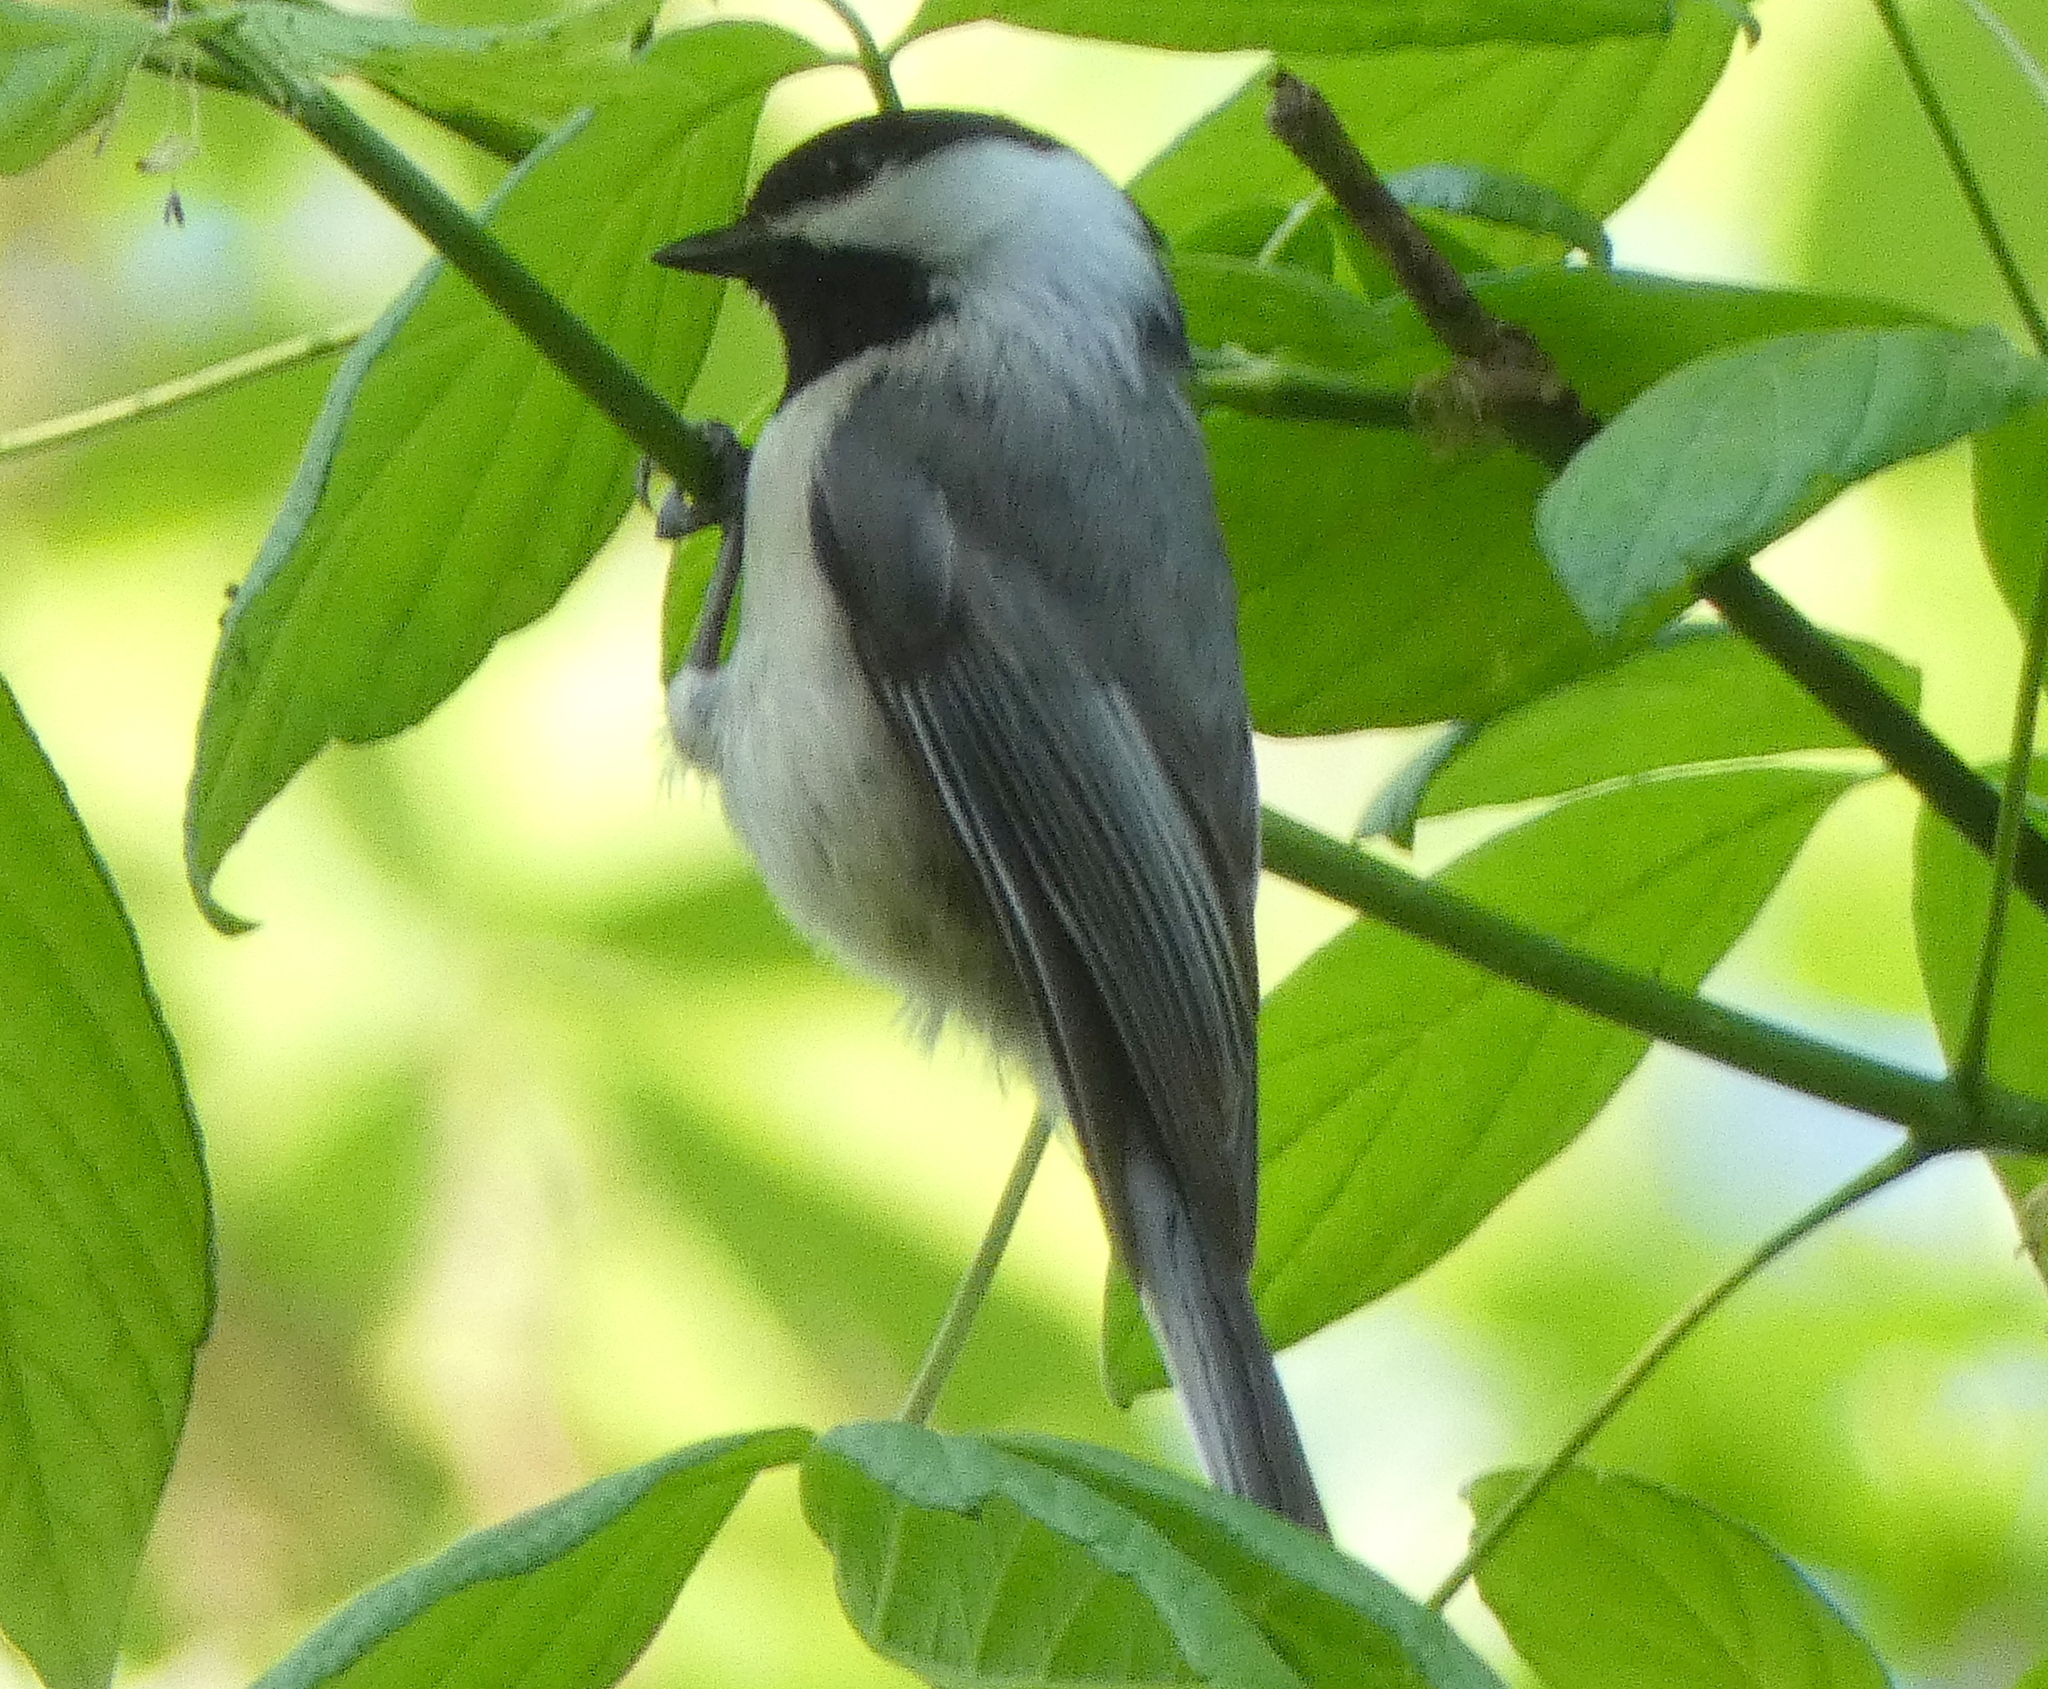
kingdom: Animalia
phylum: Chordata
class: Aves
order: Passeriformes
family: Paridae
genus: Poecile
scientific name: Poecile carolinensis
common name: Carolina chickadee
